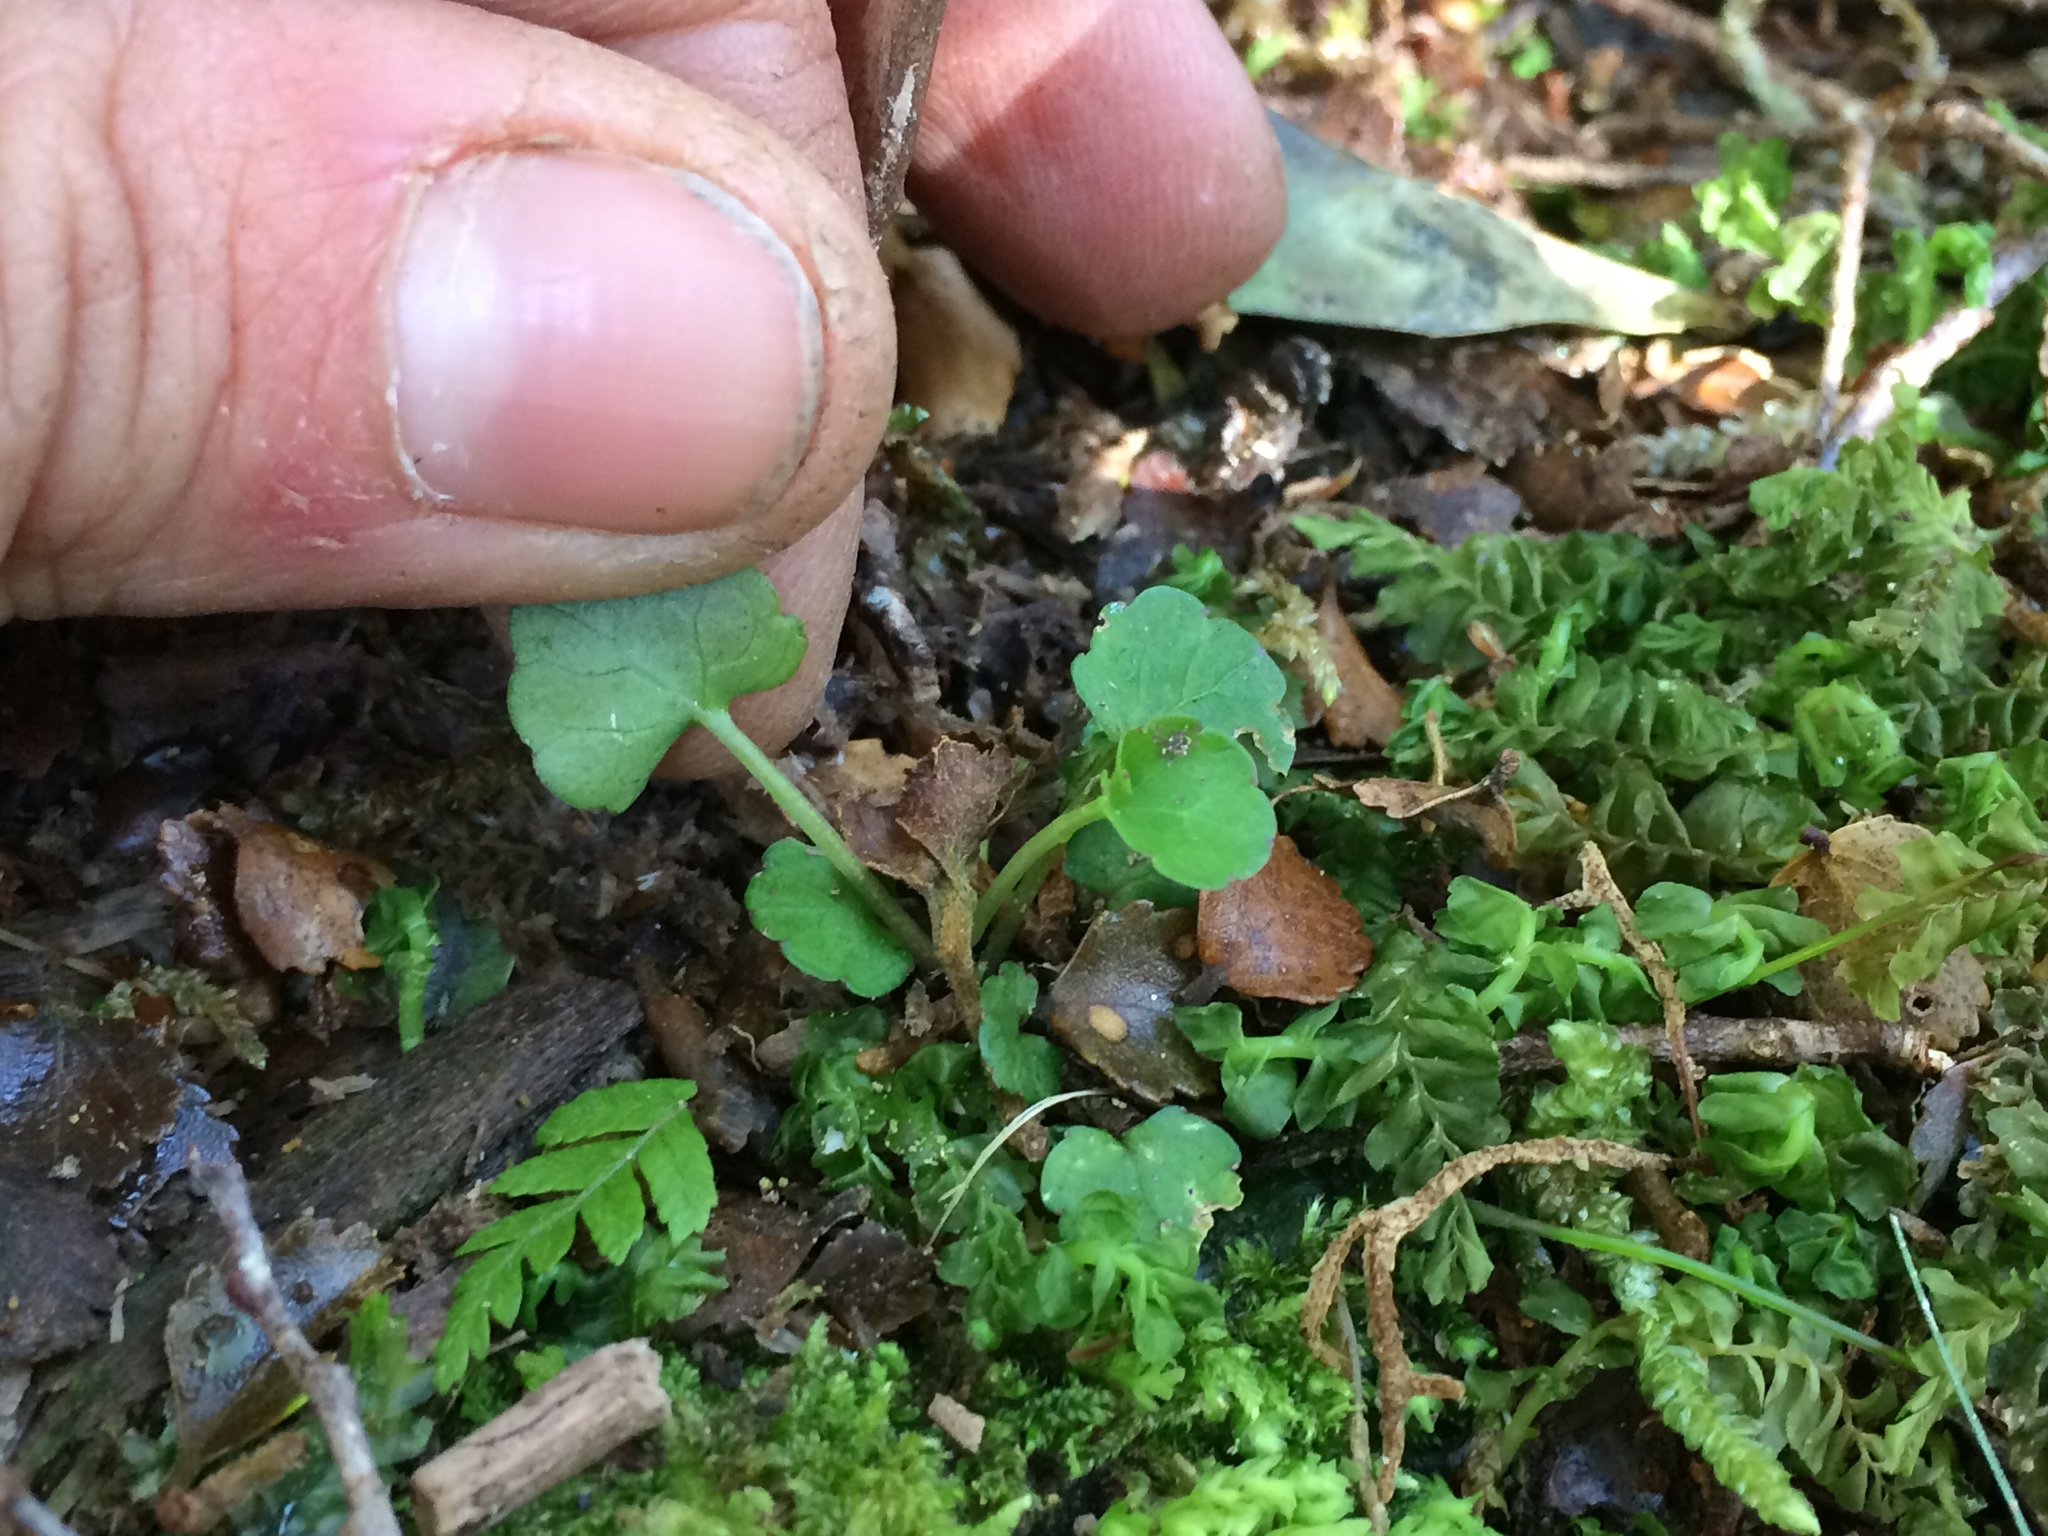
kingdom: Plantae
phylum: Tracheophyta
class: Magnoliopsida
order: Malpighiales
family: Violaceae
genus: Viola
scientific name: Viola filicaulis
